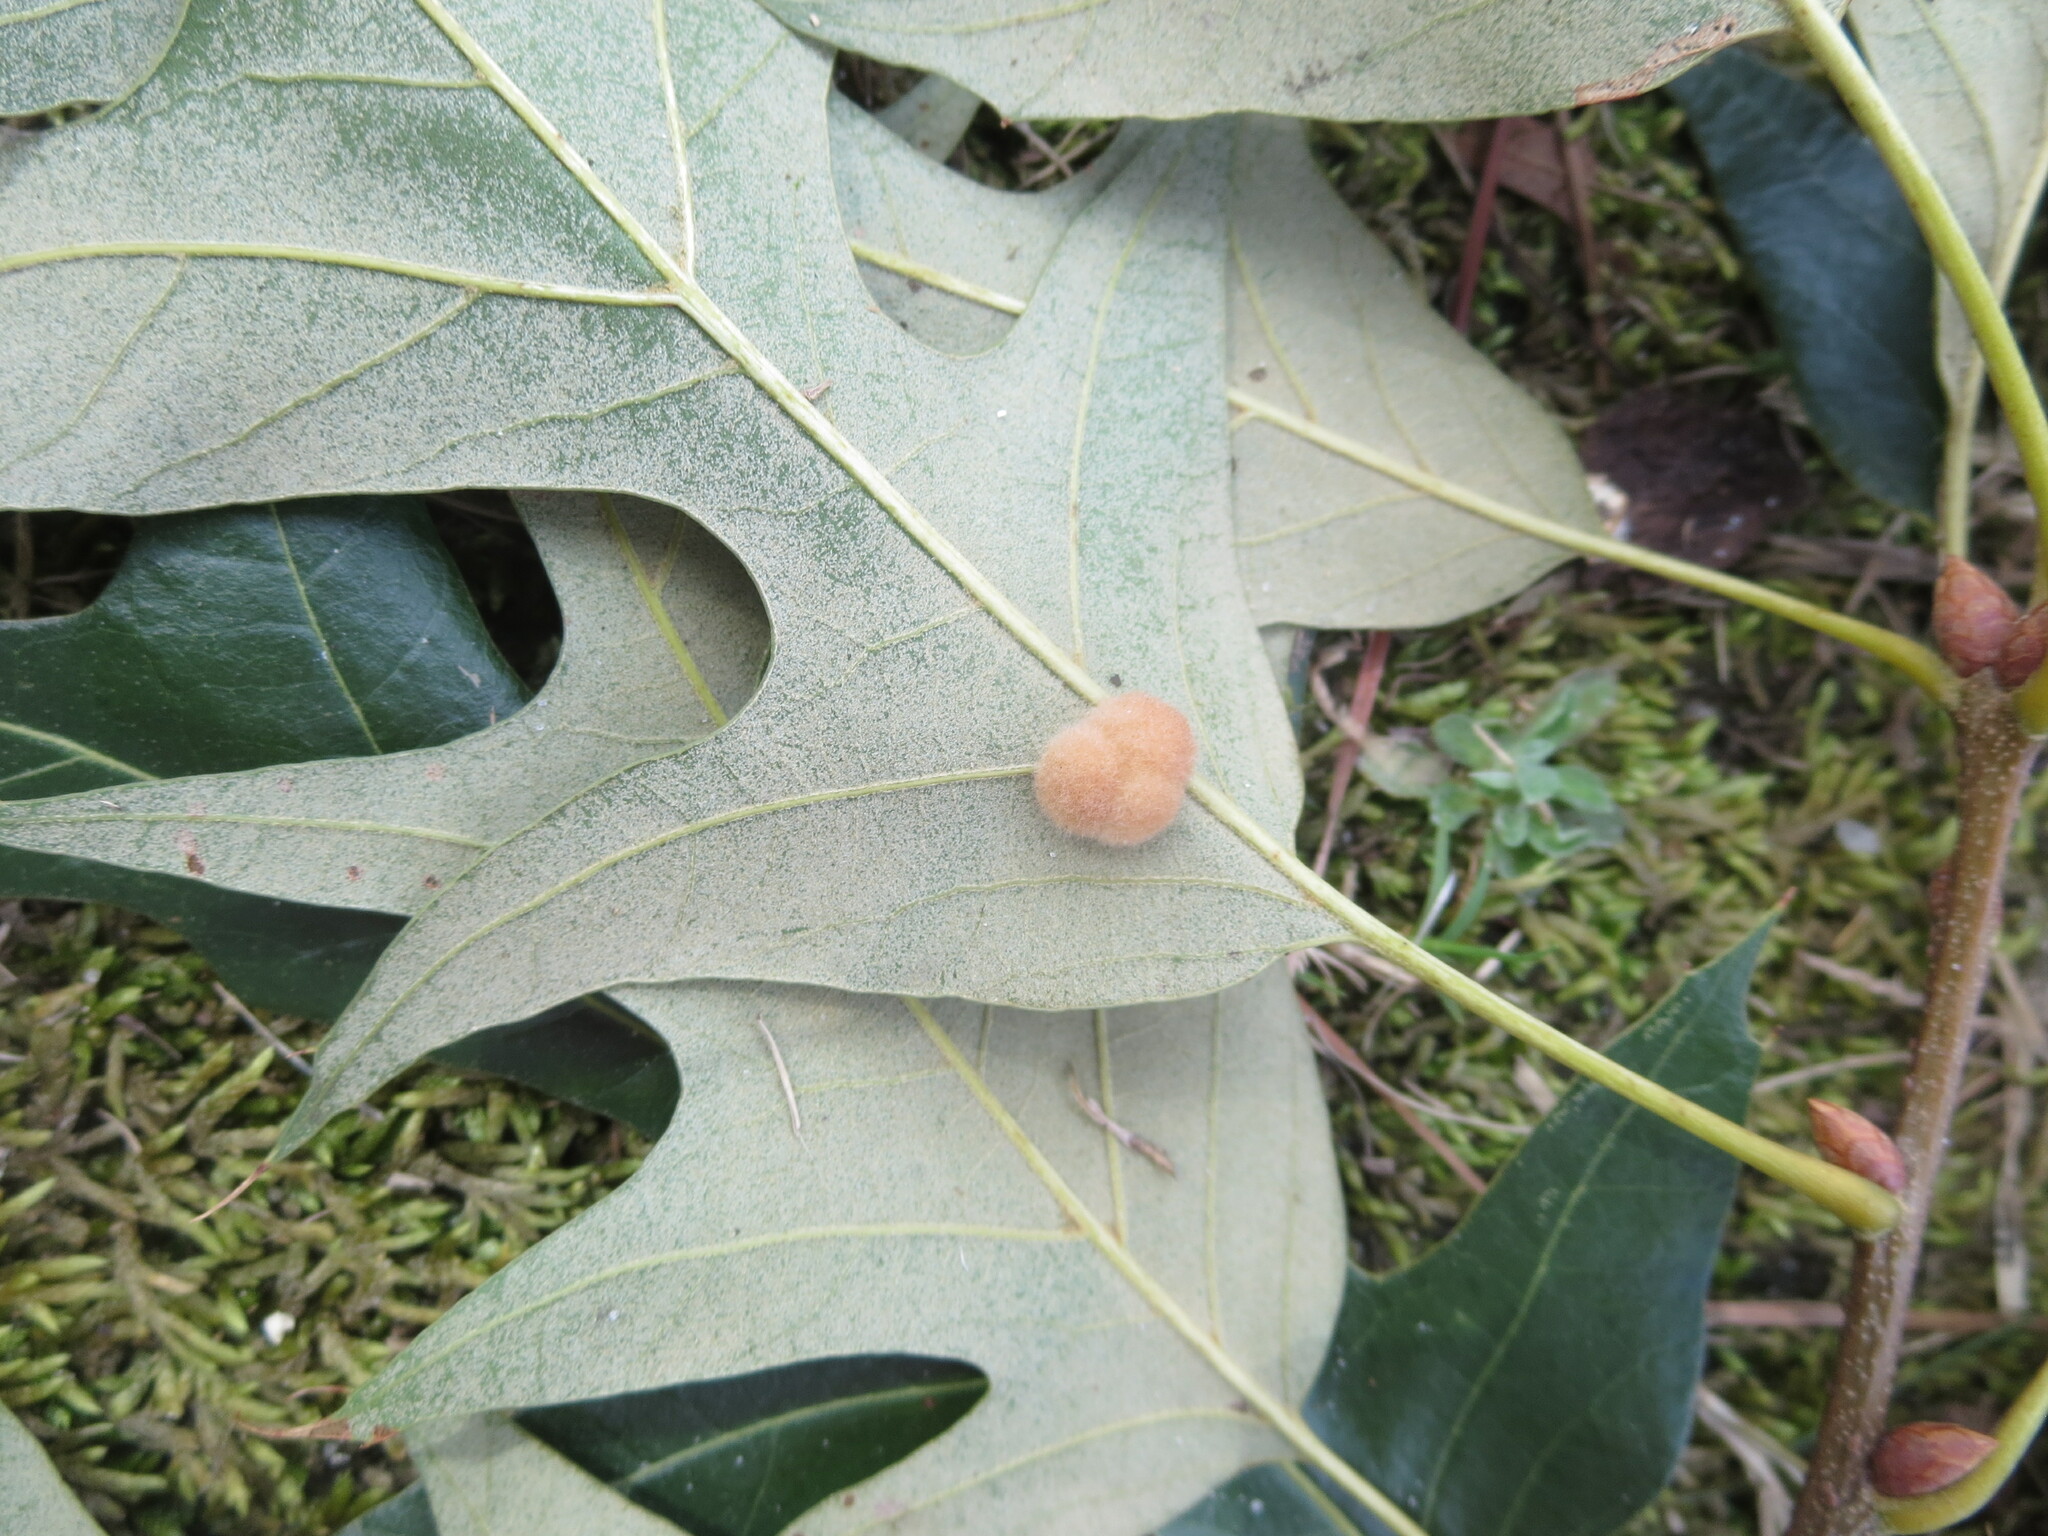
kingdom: Animalia
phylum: Arthropoda
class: Insecta
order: Hymenoptera
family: Cynipidae
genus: Callirhytis
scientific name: Callirhytis
